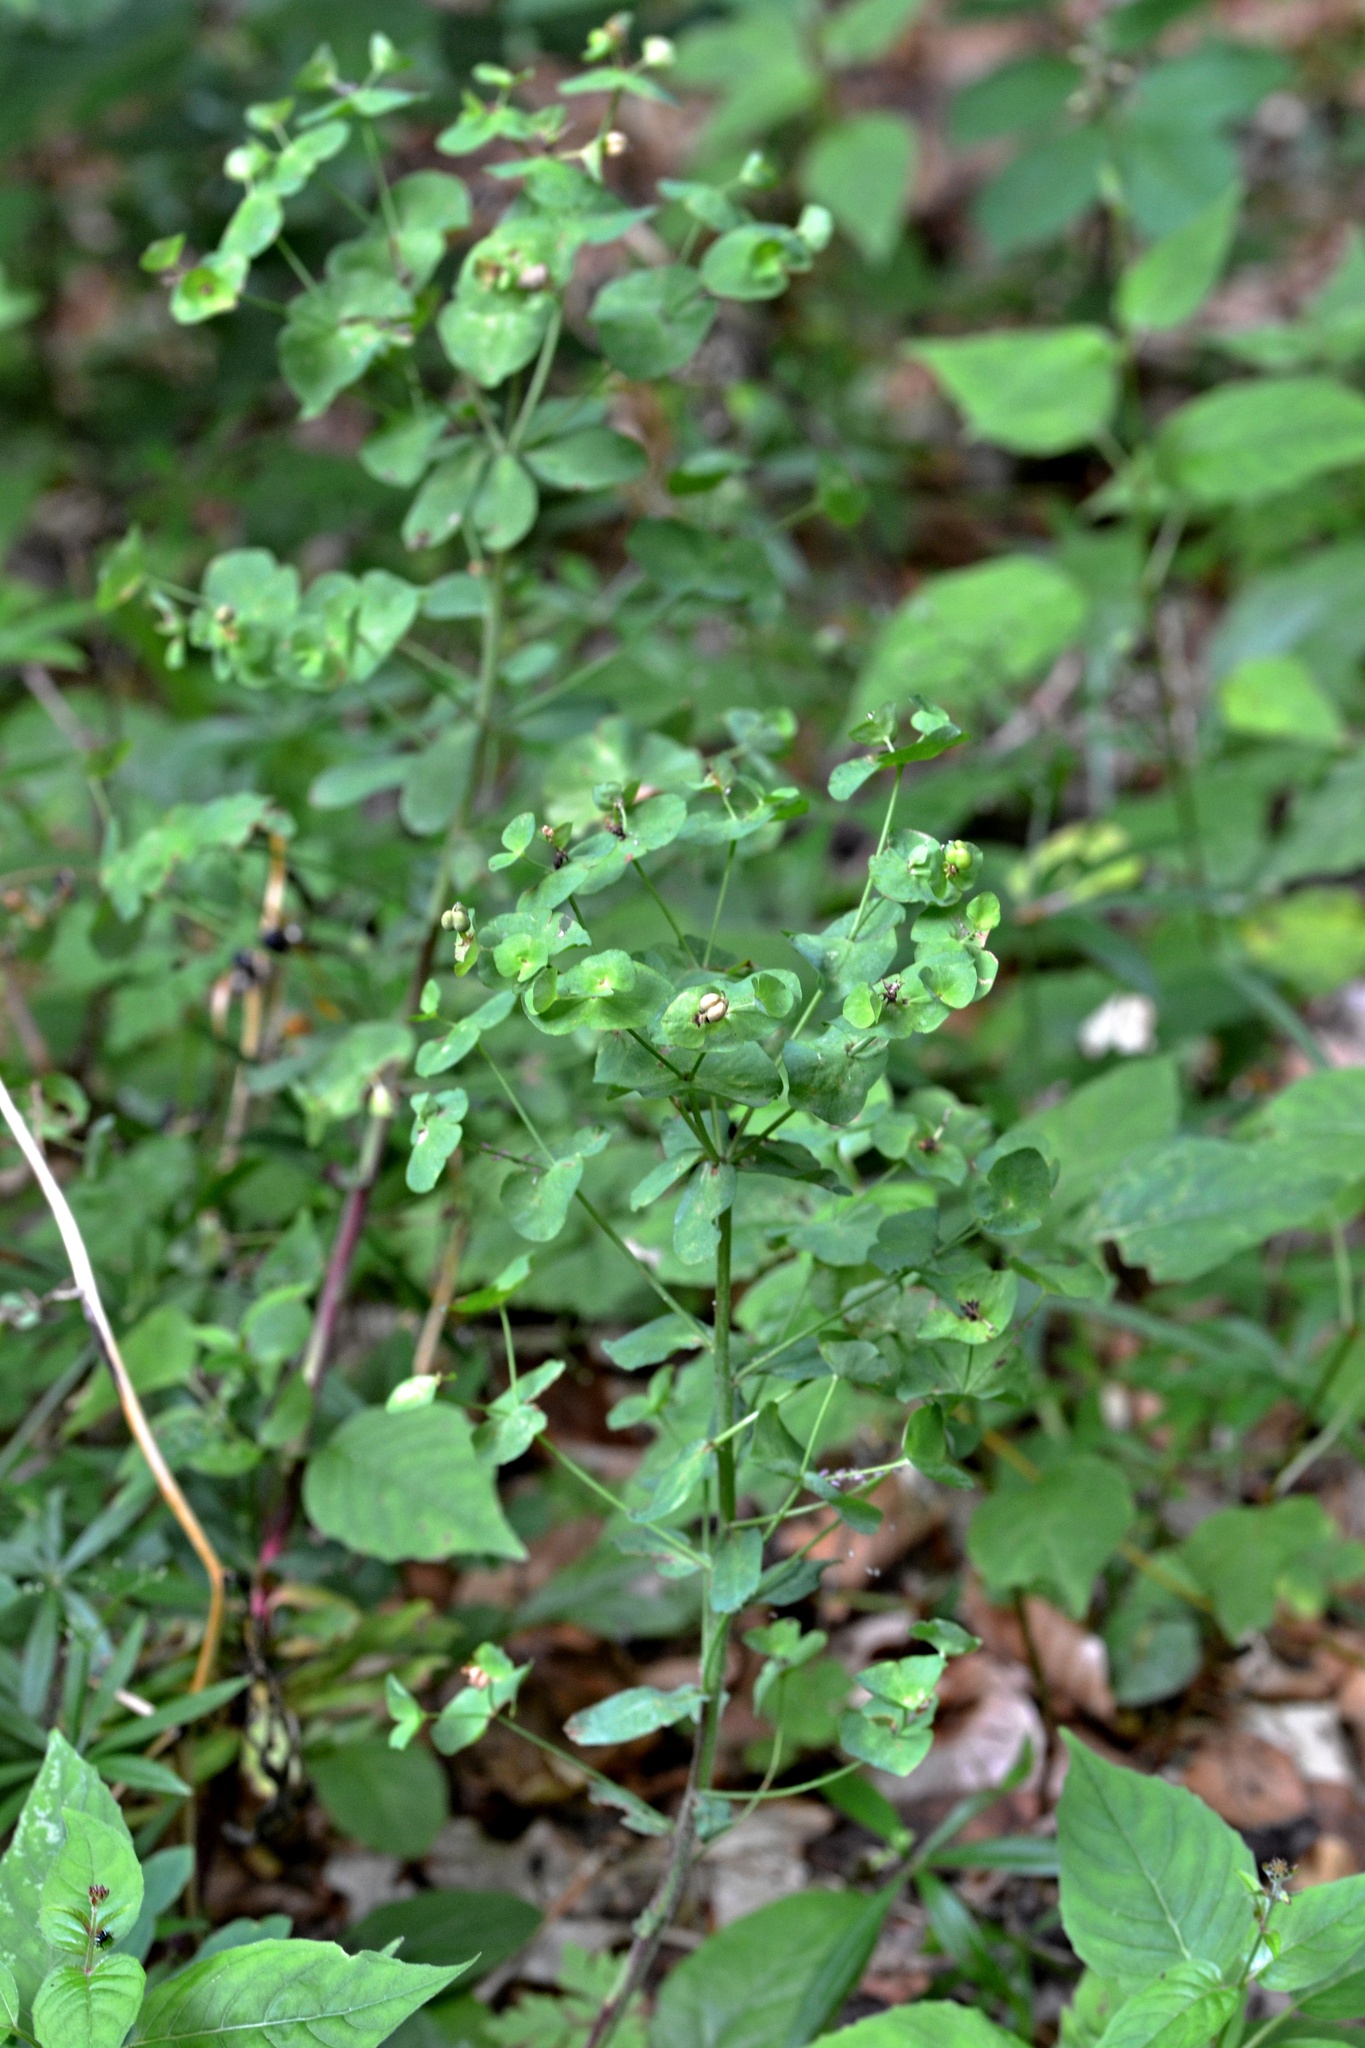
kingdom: Plantae
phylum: Tracheophyta
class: Magnoliopsida
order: Malpighiales
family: Euphorbiaceae
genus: Euphorbia
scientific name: Euphorbia amygdaloides
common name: Wood spurge
